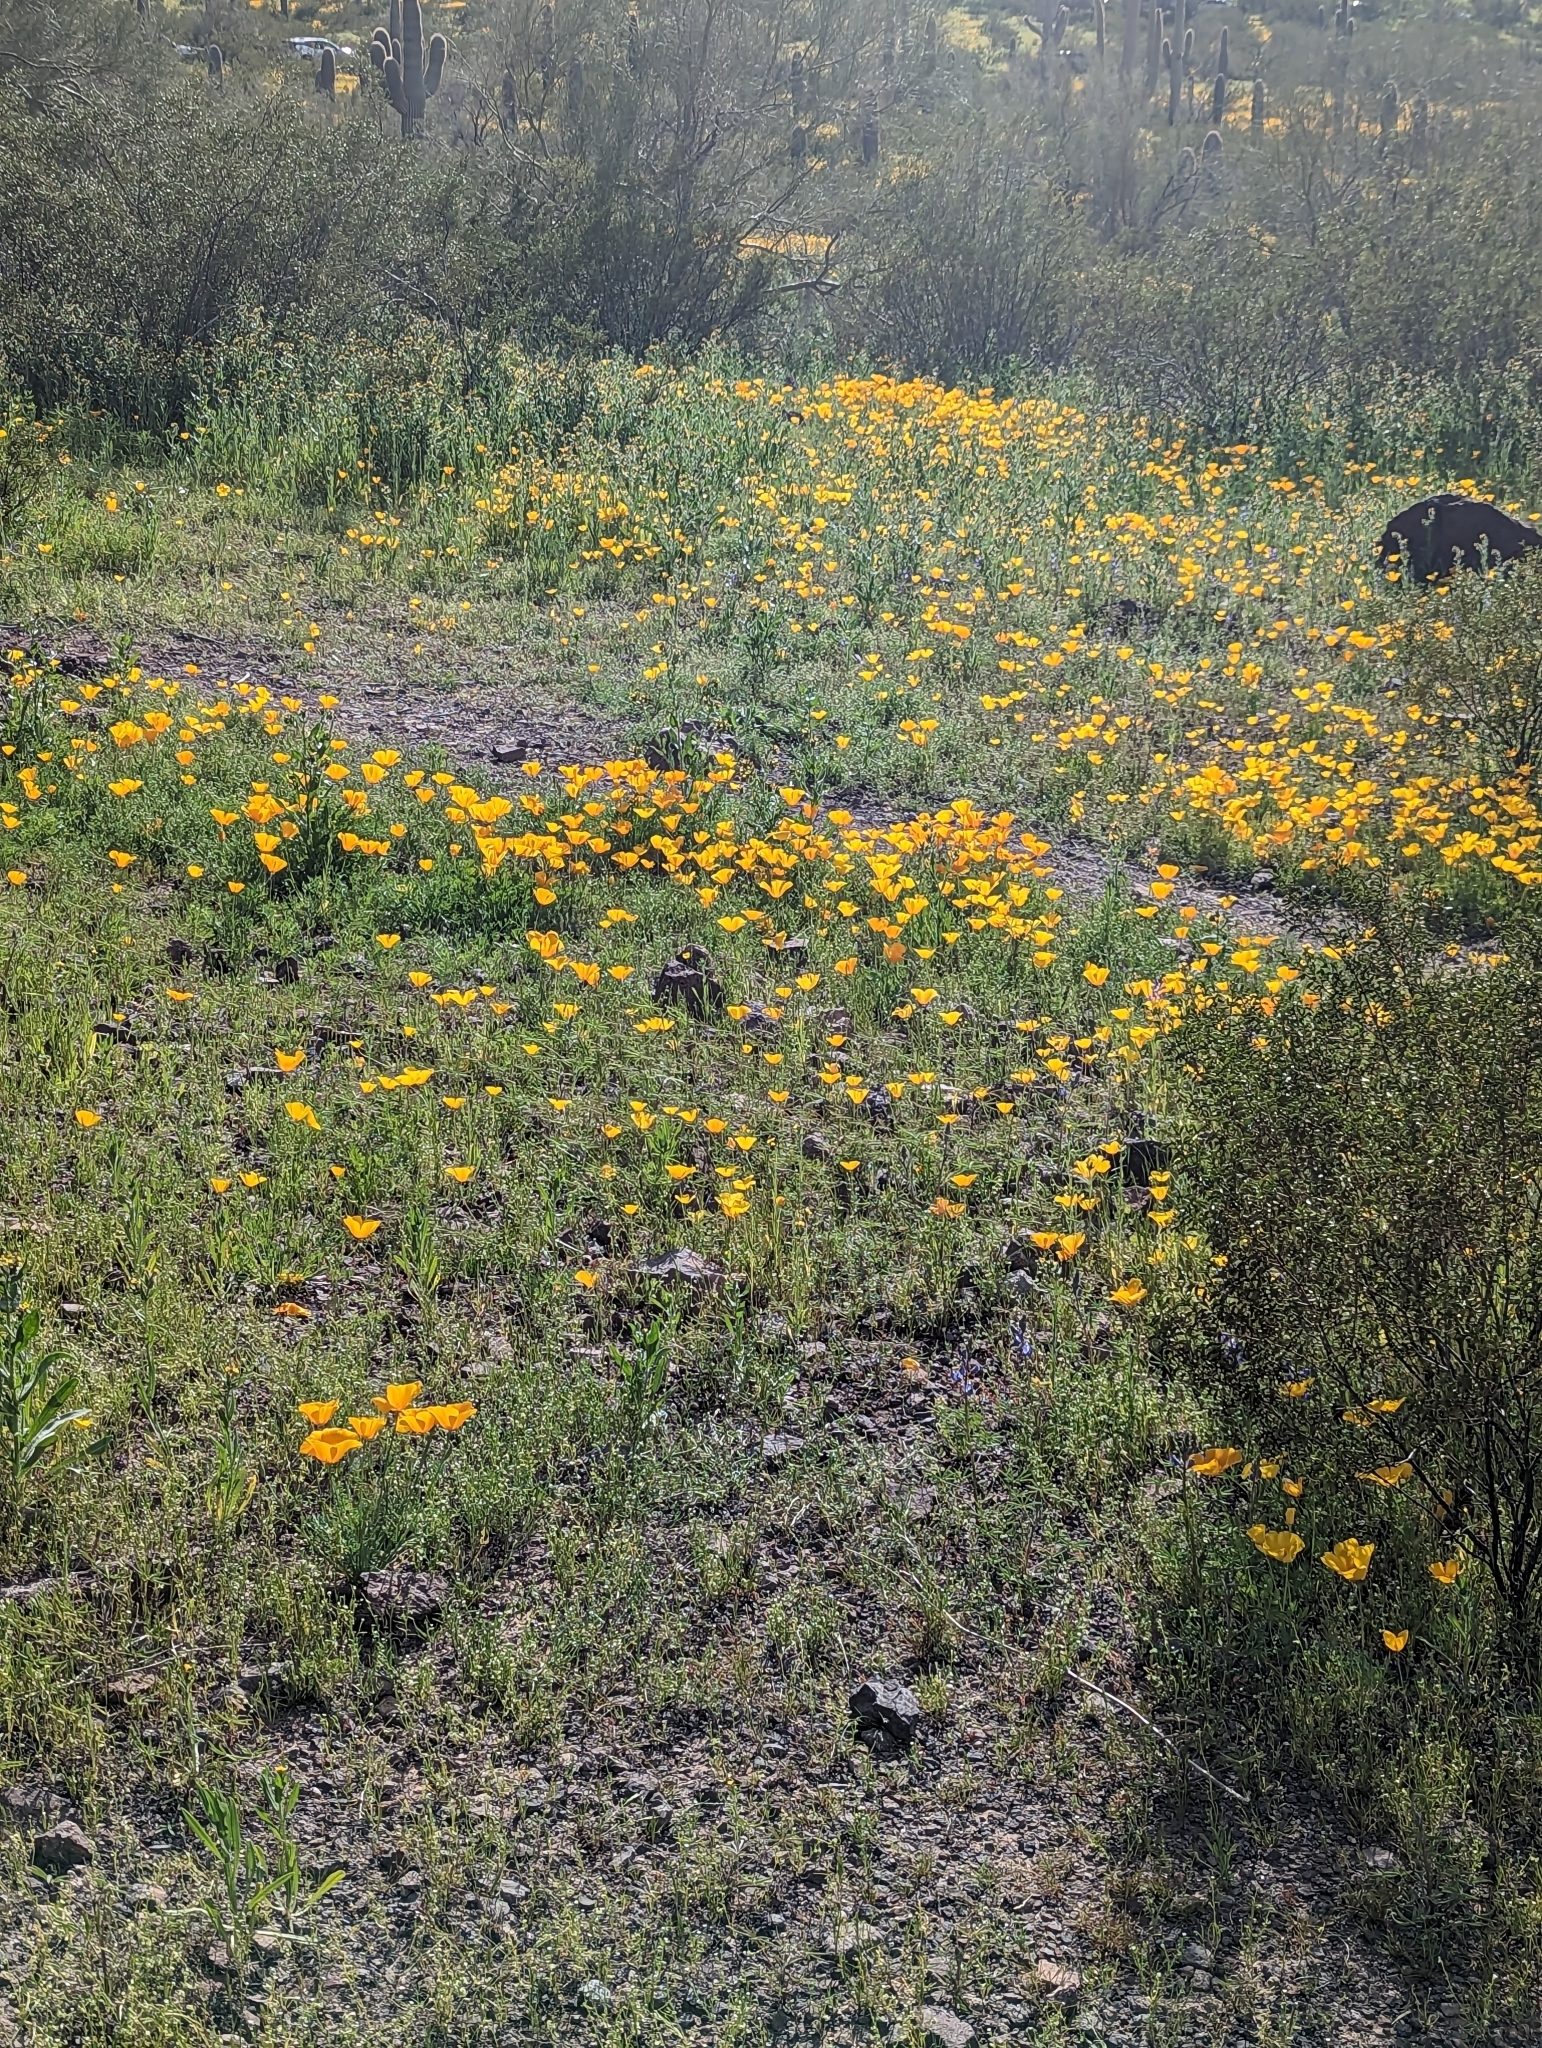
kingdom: Plantae
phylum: Tracheophyta
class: Magnoliopsida
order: Ranunculales
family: Papaveraceae
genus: Eschscholzia
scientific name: Eschscholzia californica
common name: California poppy
